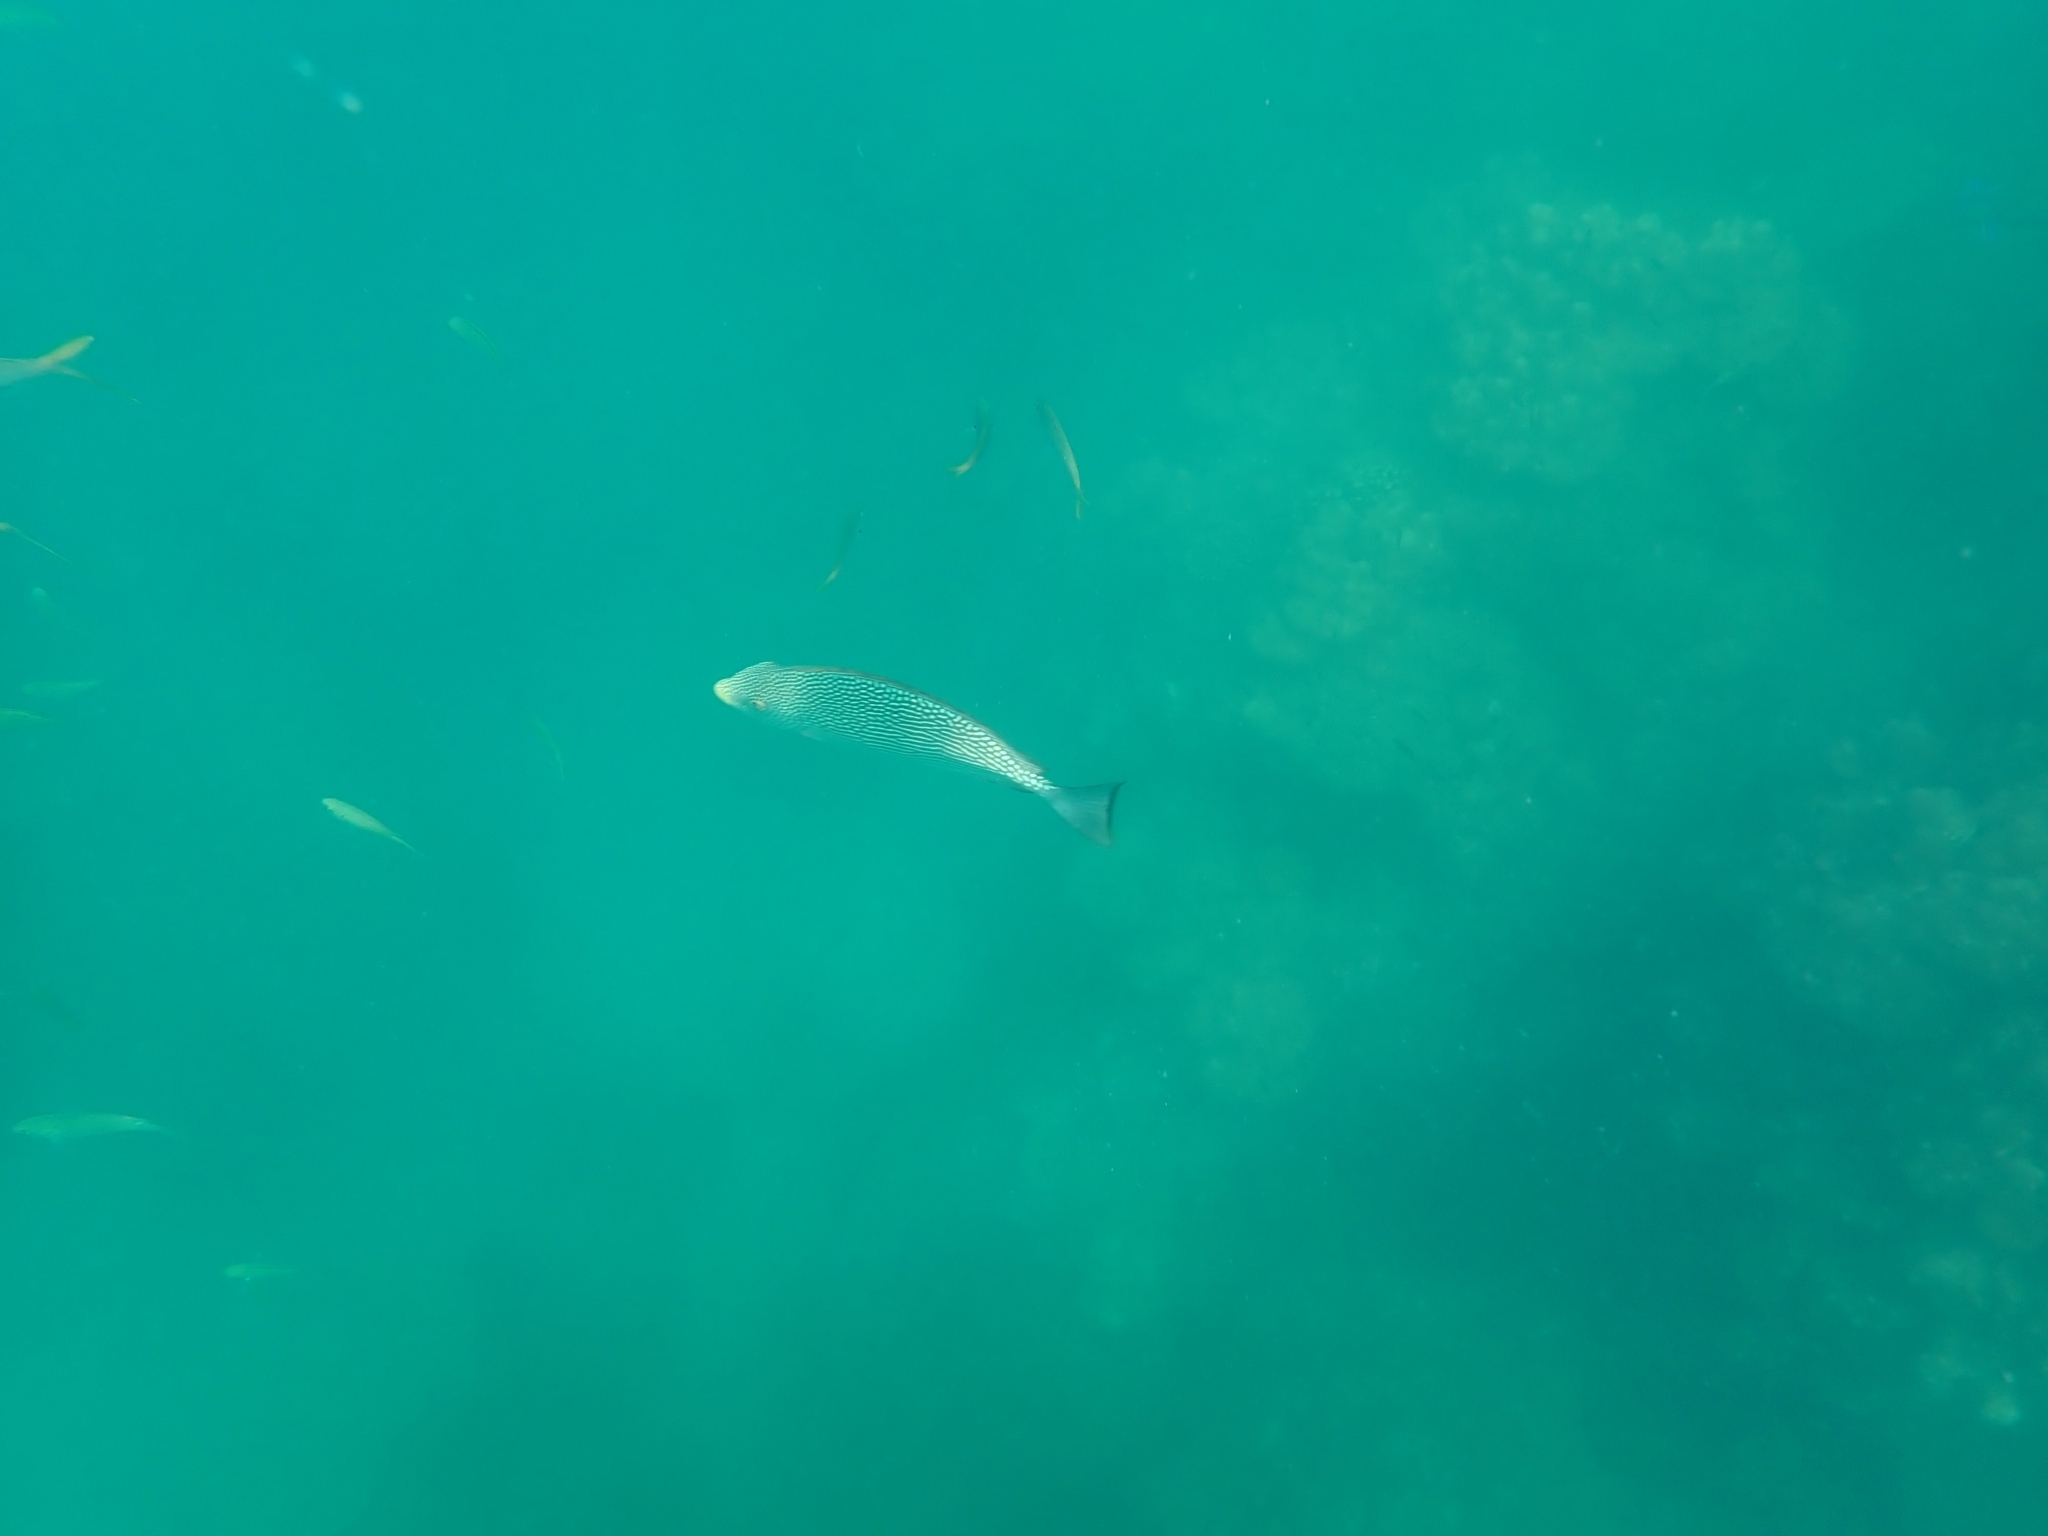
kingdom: Animalia
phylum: Chordata
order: Perciformes
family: Siganidae
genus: Siganus
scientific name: Siganus javus
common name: Java rabbitfish
